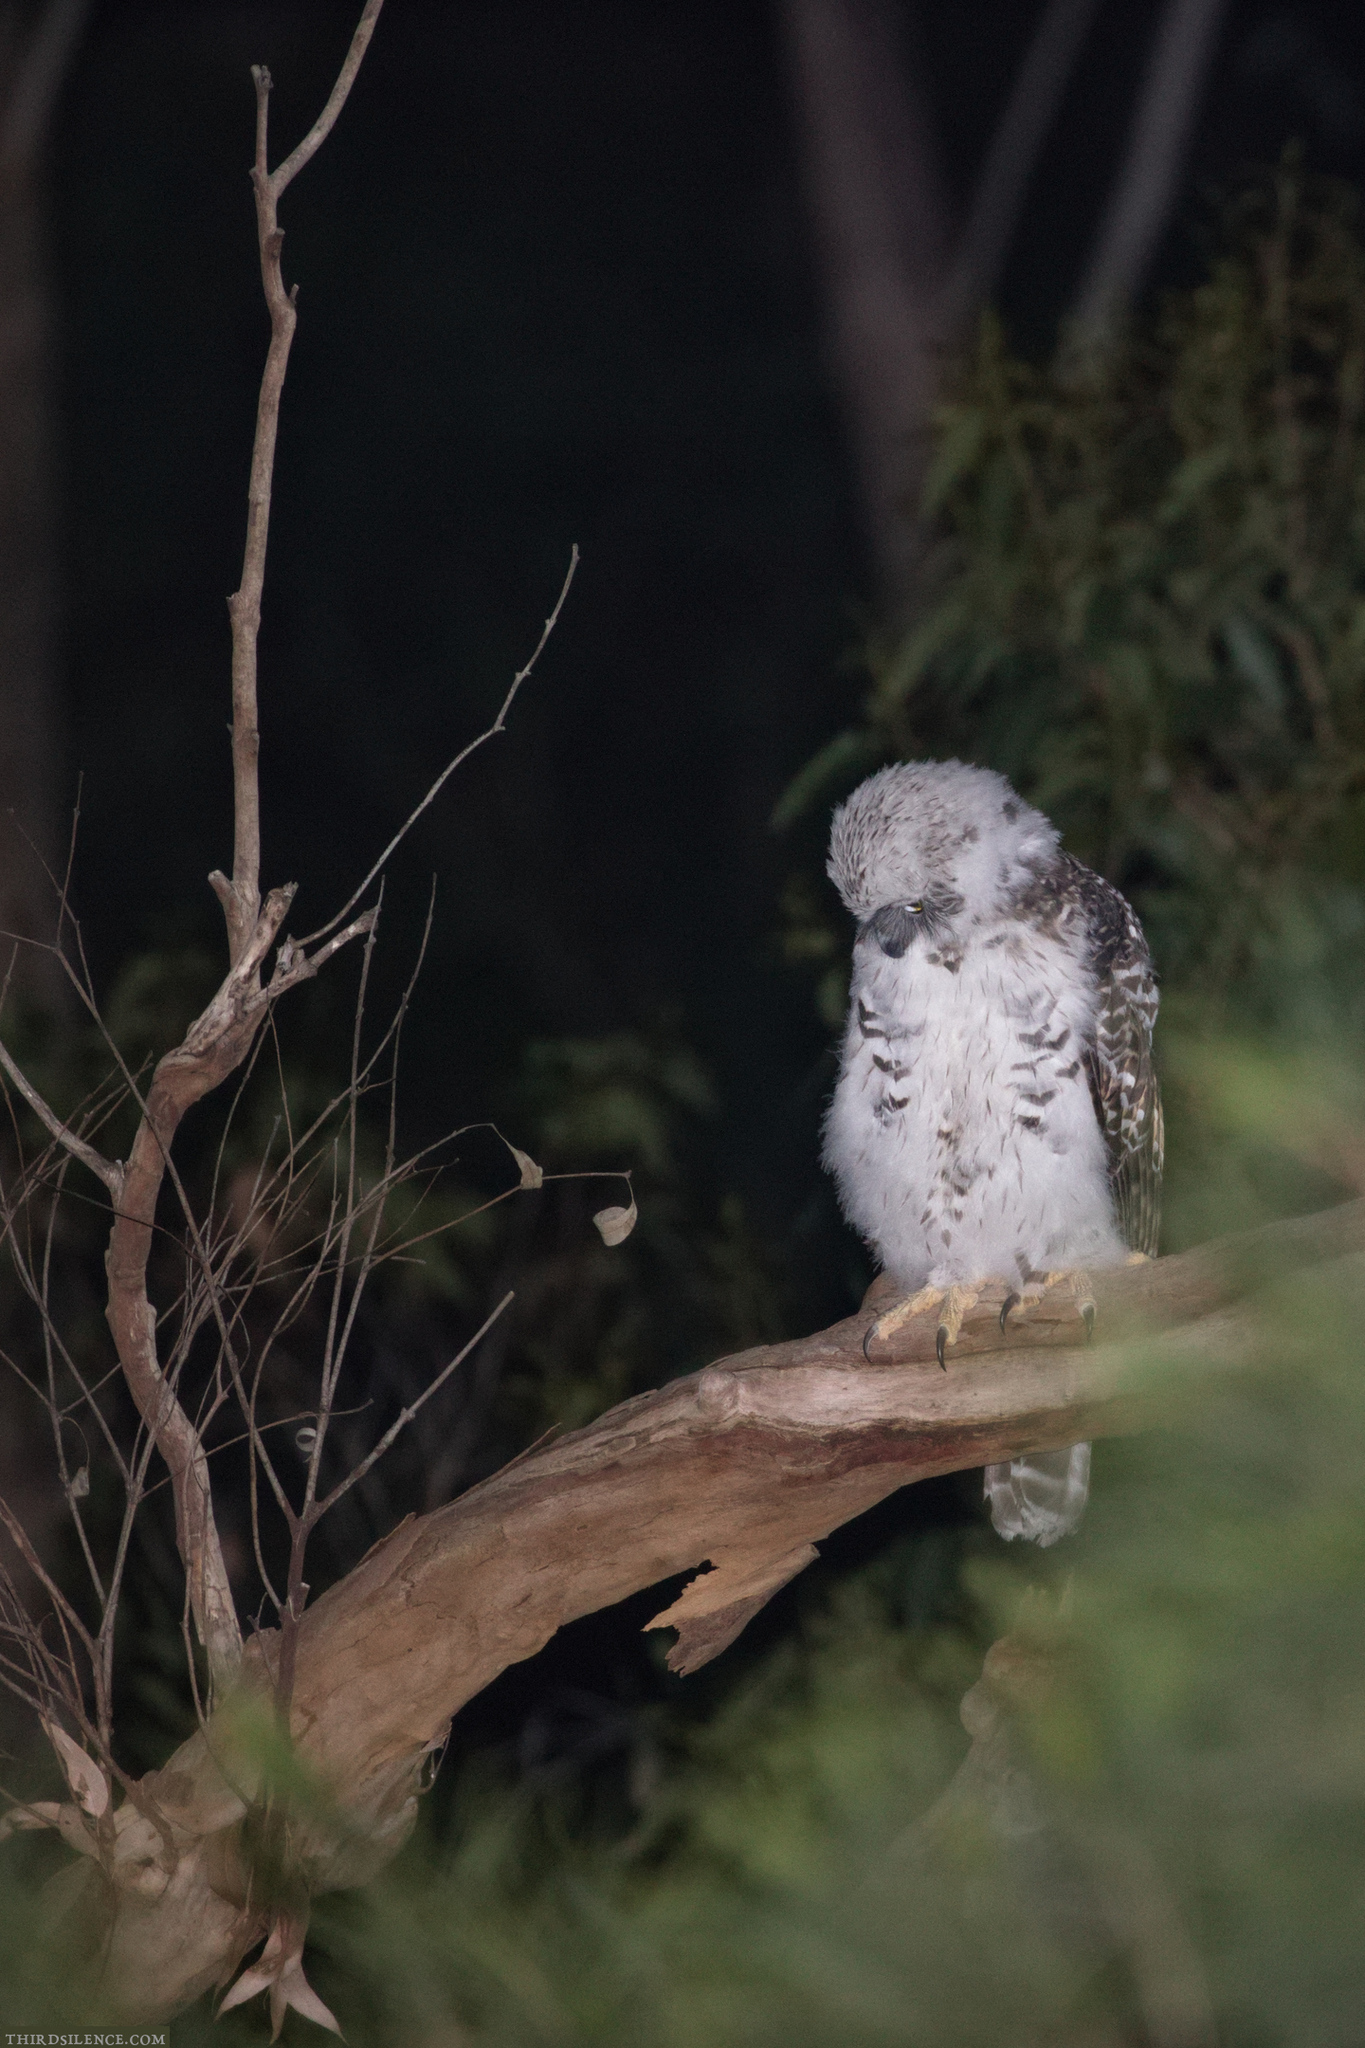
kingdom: Animalia
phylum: Chordata
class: Aves
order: Strigiformes
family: Strigidae
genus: Ninox
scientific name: Ninox strenua
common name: Powerful owl
